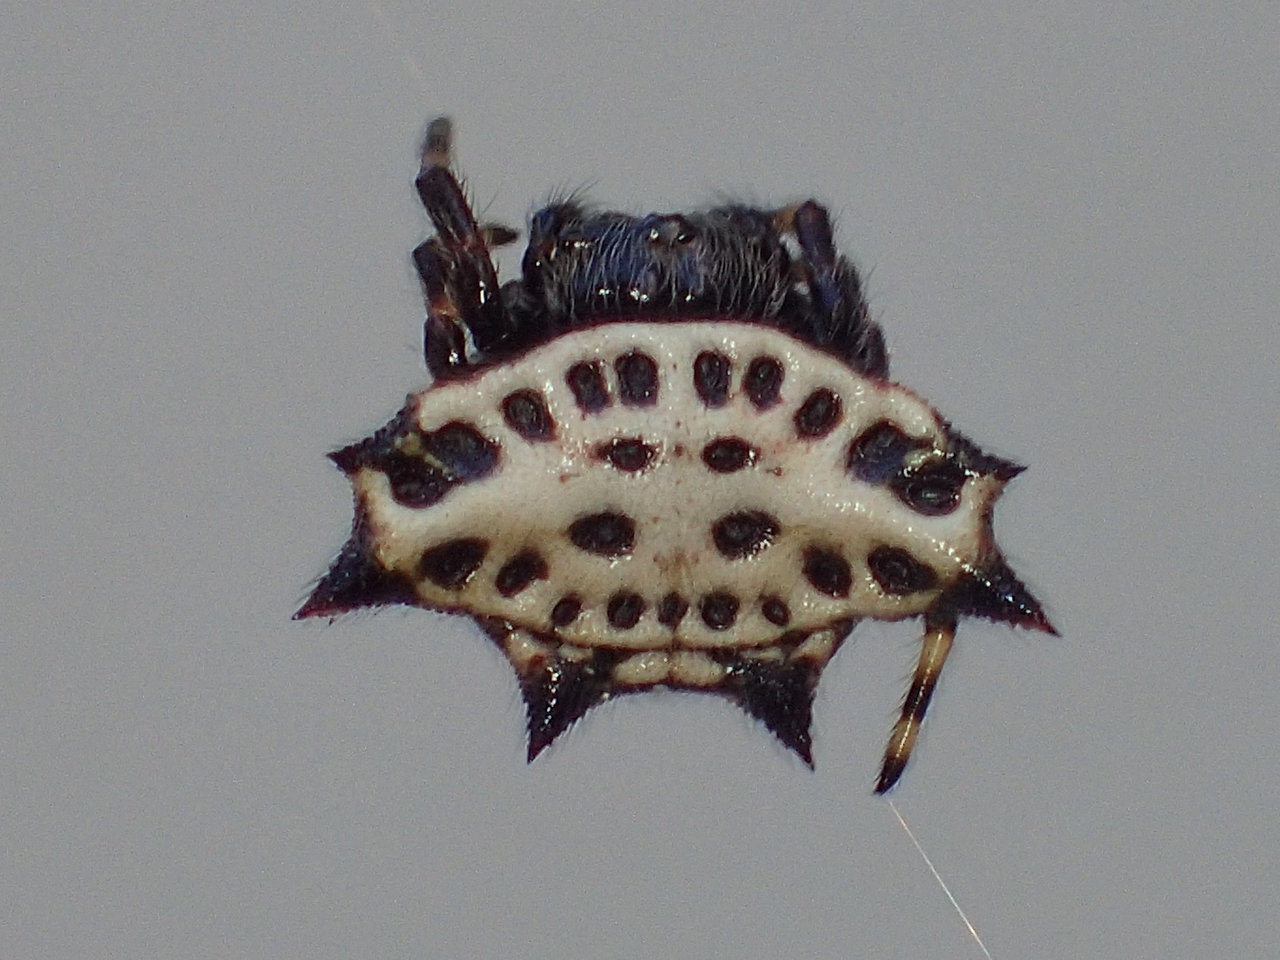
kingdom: Animalia
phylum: Arthropoda
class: Arachnida
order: Araneae
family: Araneidae
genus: Gasteracantha
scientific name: Gasteracantha cancriformis
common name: Orb weavers
